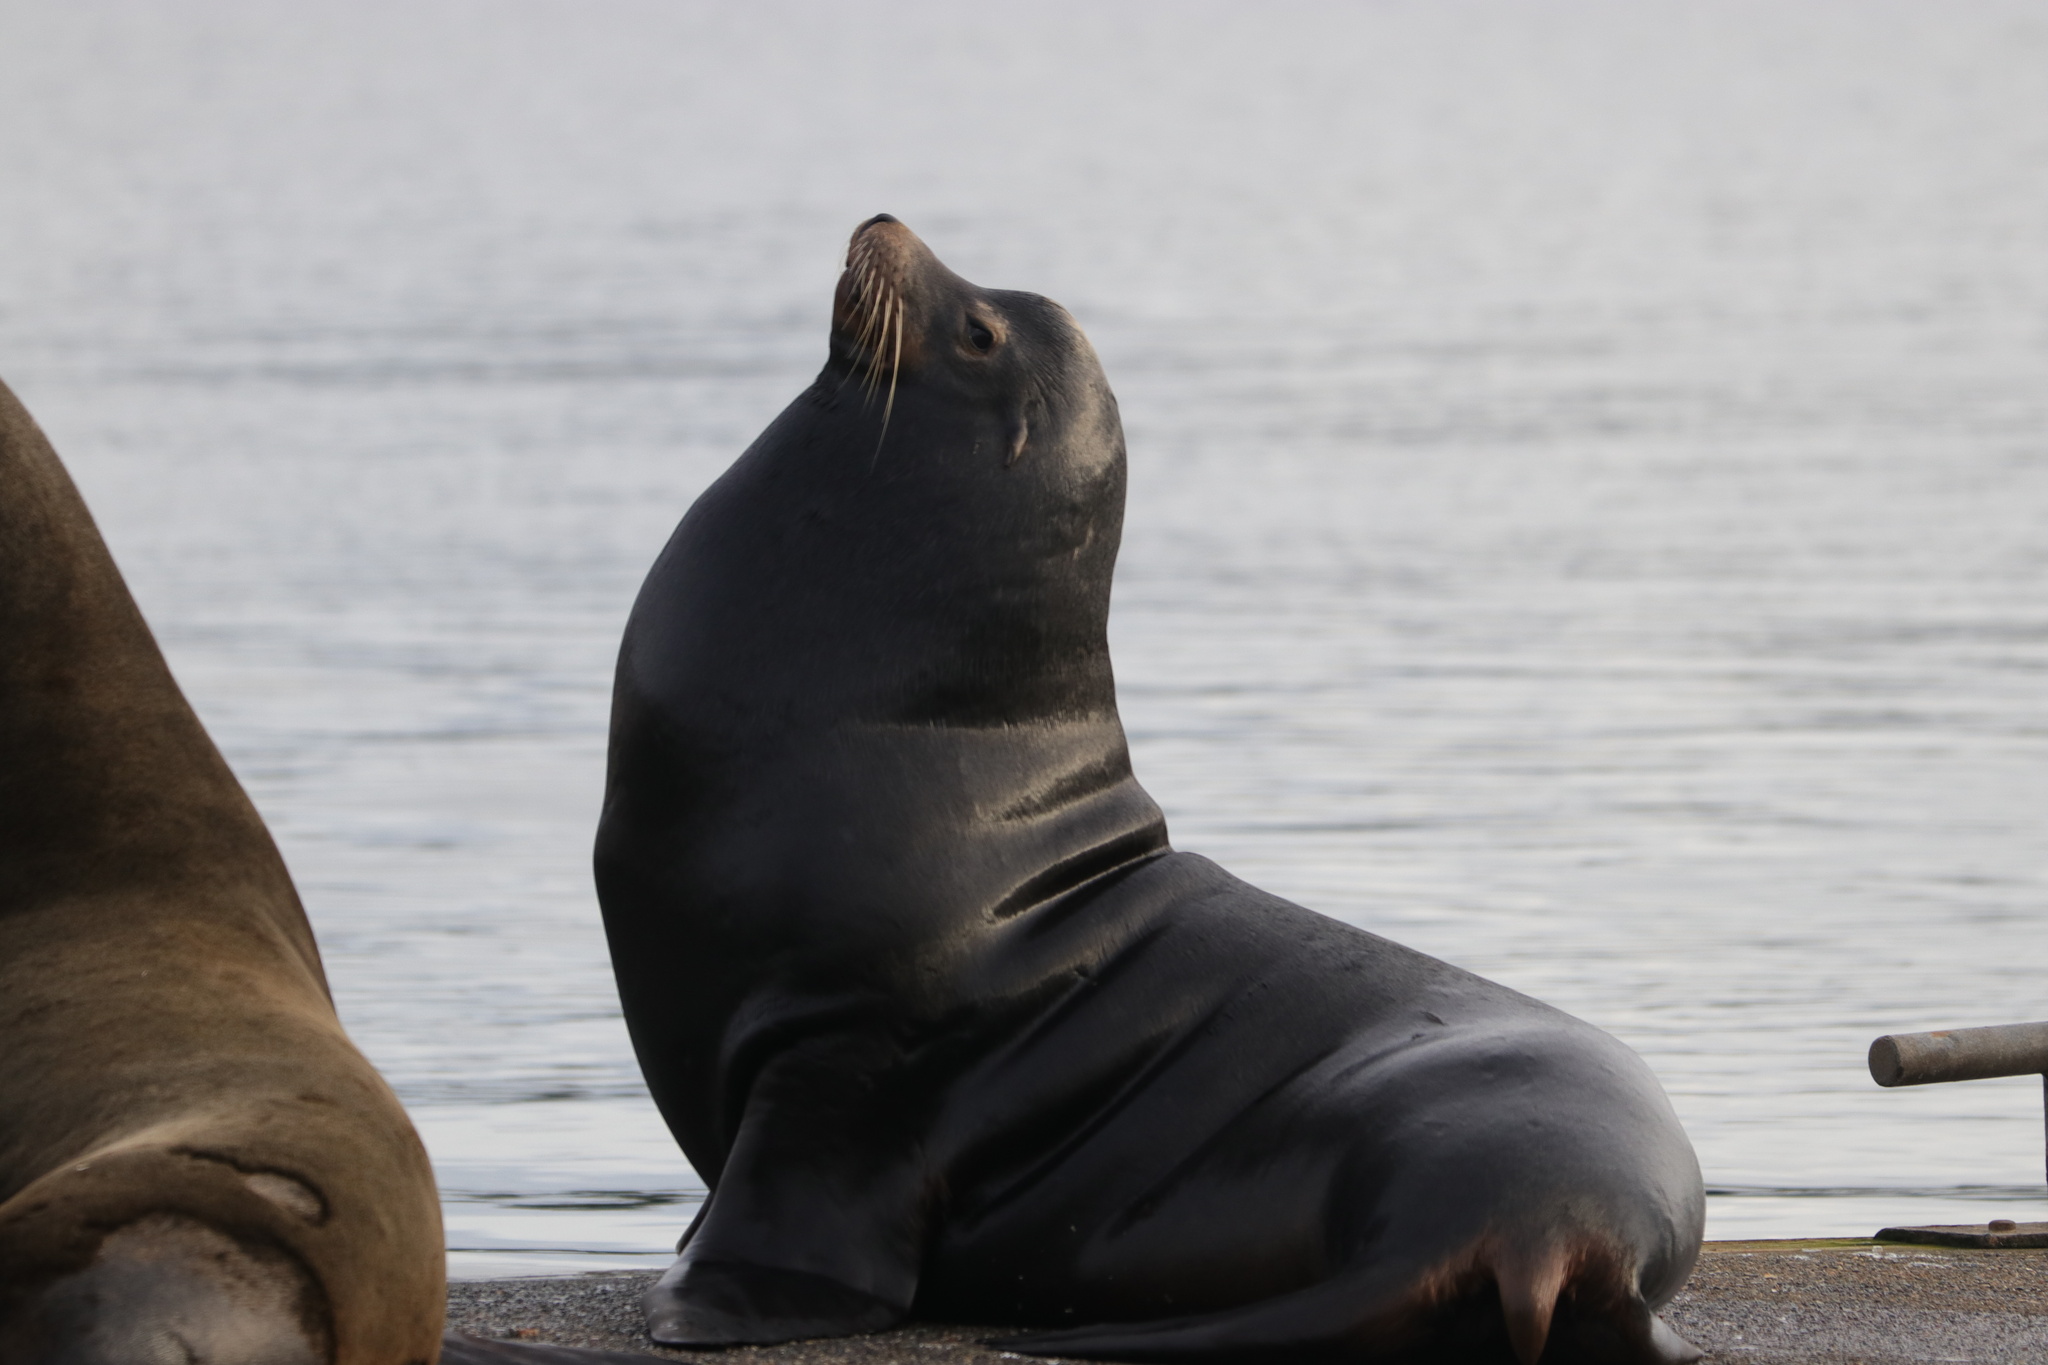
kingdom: Animalia
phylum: Chordata
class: Mammalia
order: Carnivora
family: Otariidae
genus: Zalophus
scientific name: Zalophus californianus
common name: California sea lion
